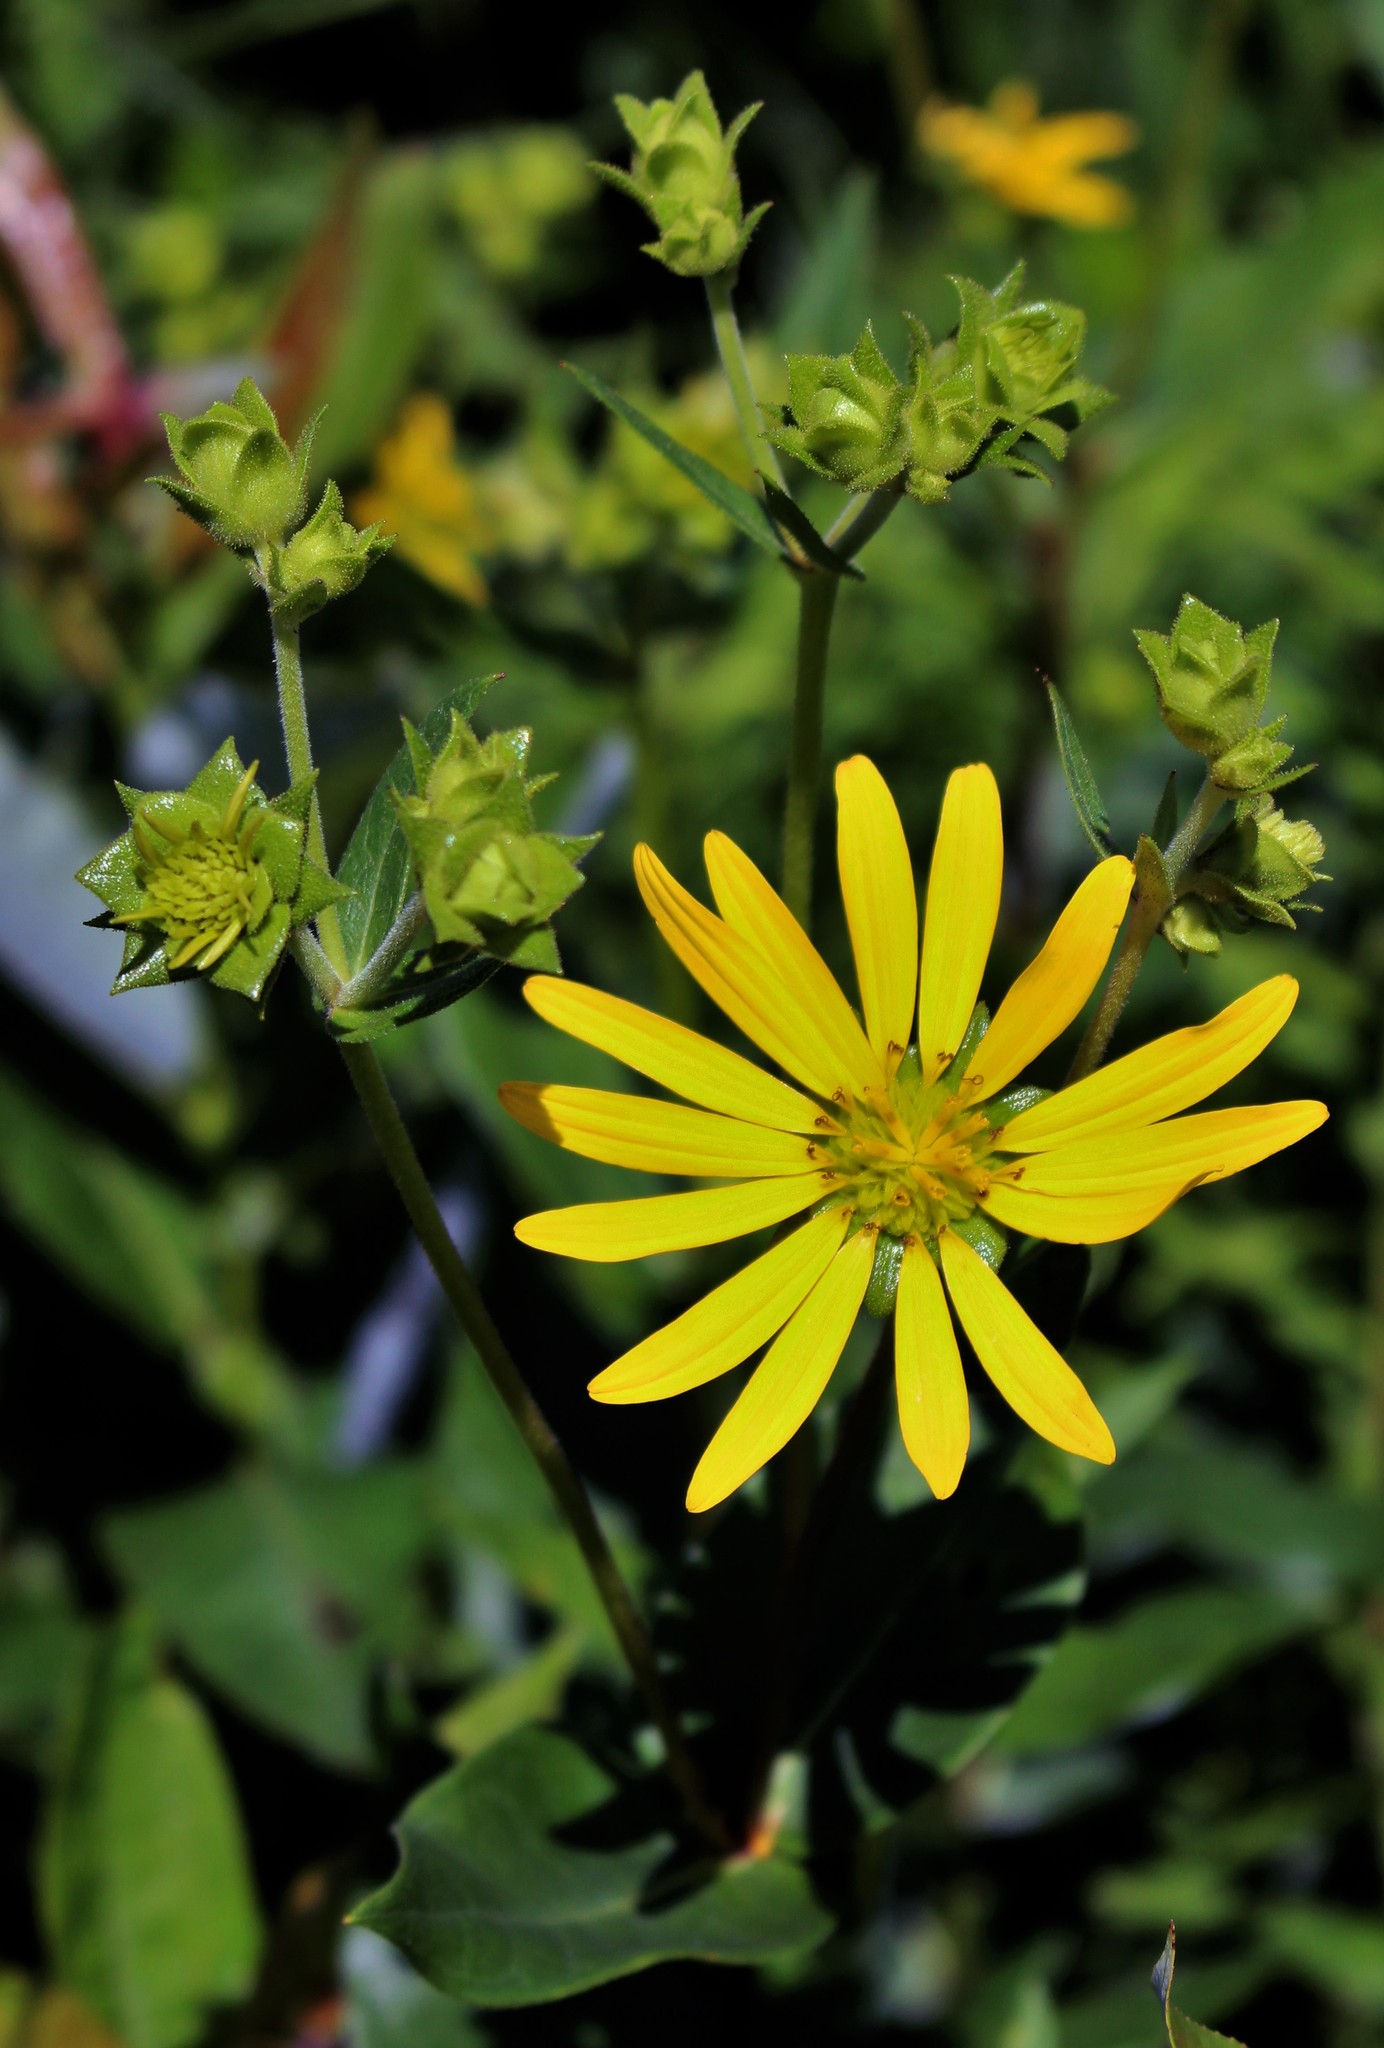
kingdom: Plantae
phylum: Tracheophyta
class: Magnoliopsida
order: Asterales
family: Asteraceae
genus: Silphium
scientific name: Silphium integrifolium
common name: Whole-leaf rosinweed
